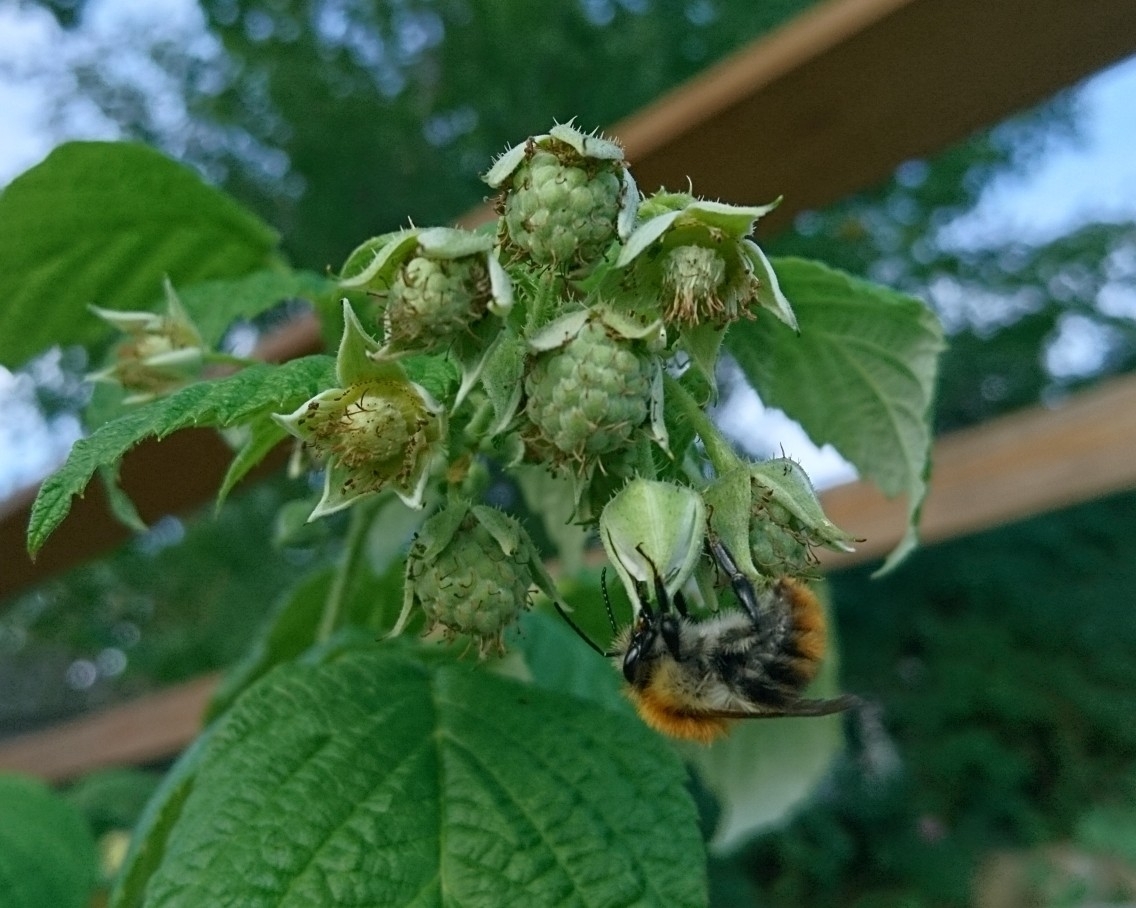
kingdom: Animalia
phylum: Arthropoda
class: Insecta
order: Hymenoptera
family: Apidae
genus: Bombus
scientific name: Bombus pascuorum
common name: Common carder bee
